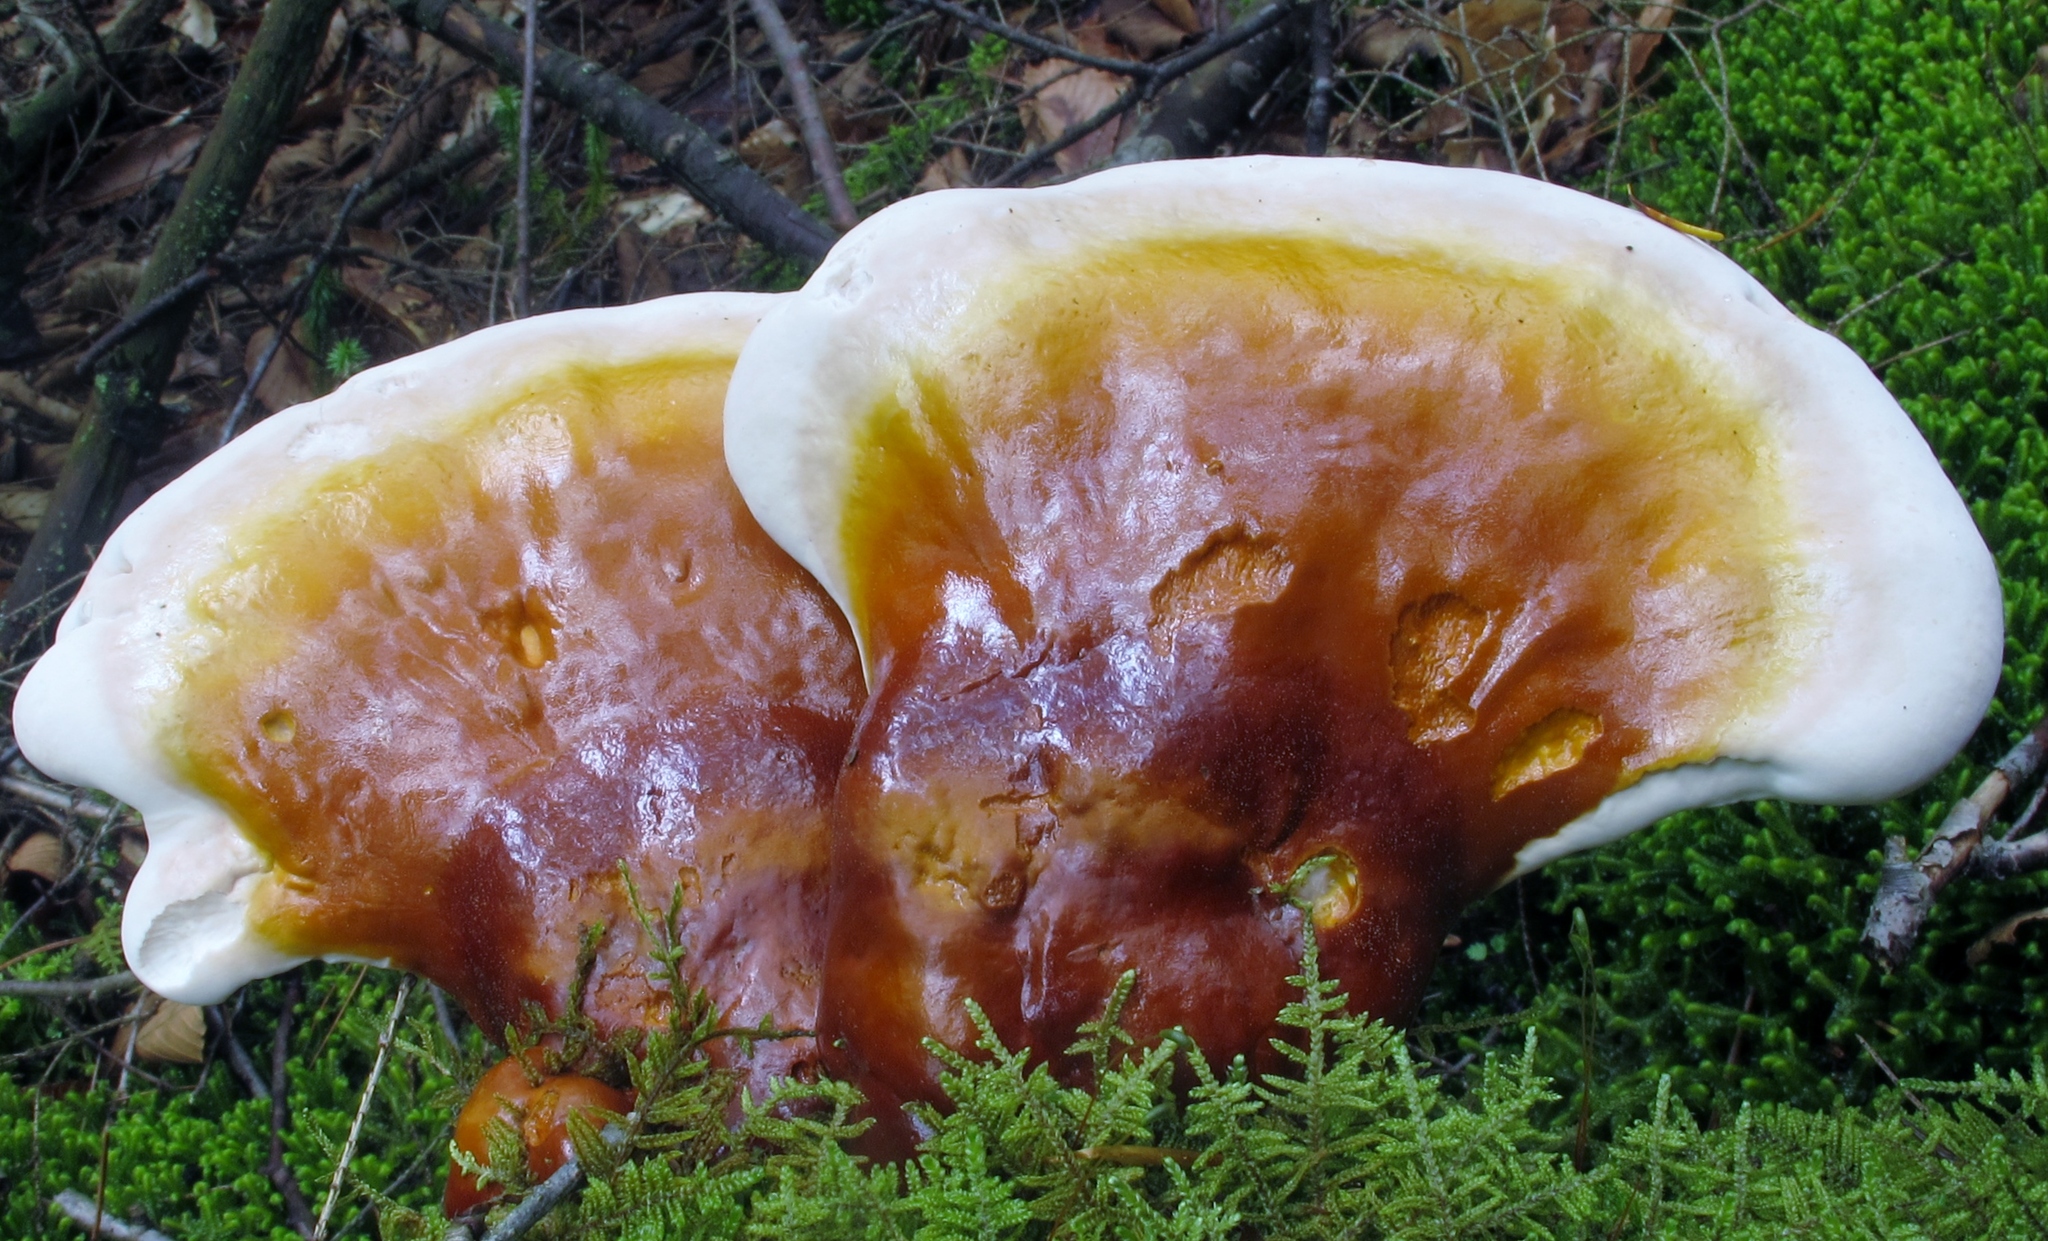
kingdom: Fungi
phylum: Basidiomycota
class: Agaricomycetes
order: Polyporales
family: Polyporaceae
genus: Ganoderma
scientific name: Ganoderma tsugae
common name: Hemlock varnish shelf
